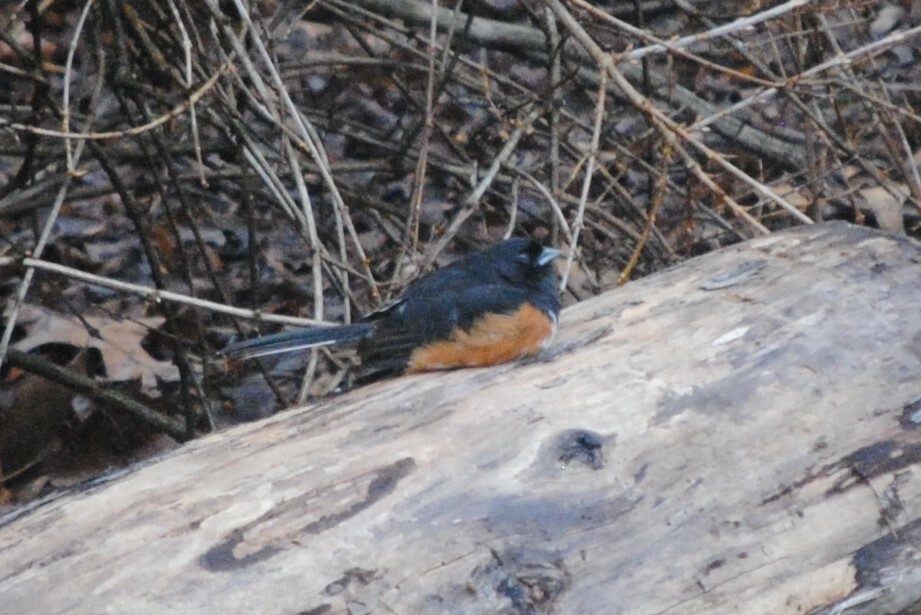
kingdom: Animalia
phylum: Chordata
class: Aves
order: Passeriformes
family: Passerellidae
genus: Pipilo
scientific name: Pipilo erythrophthalmus
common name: Eastern towhee
